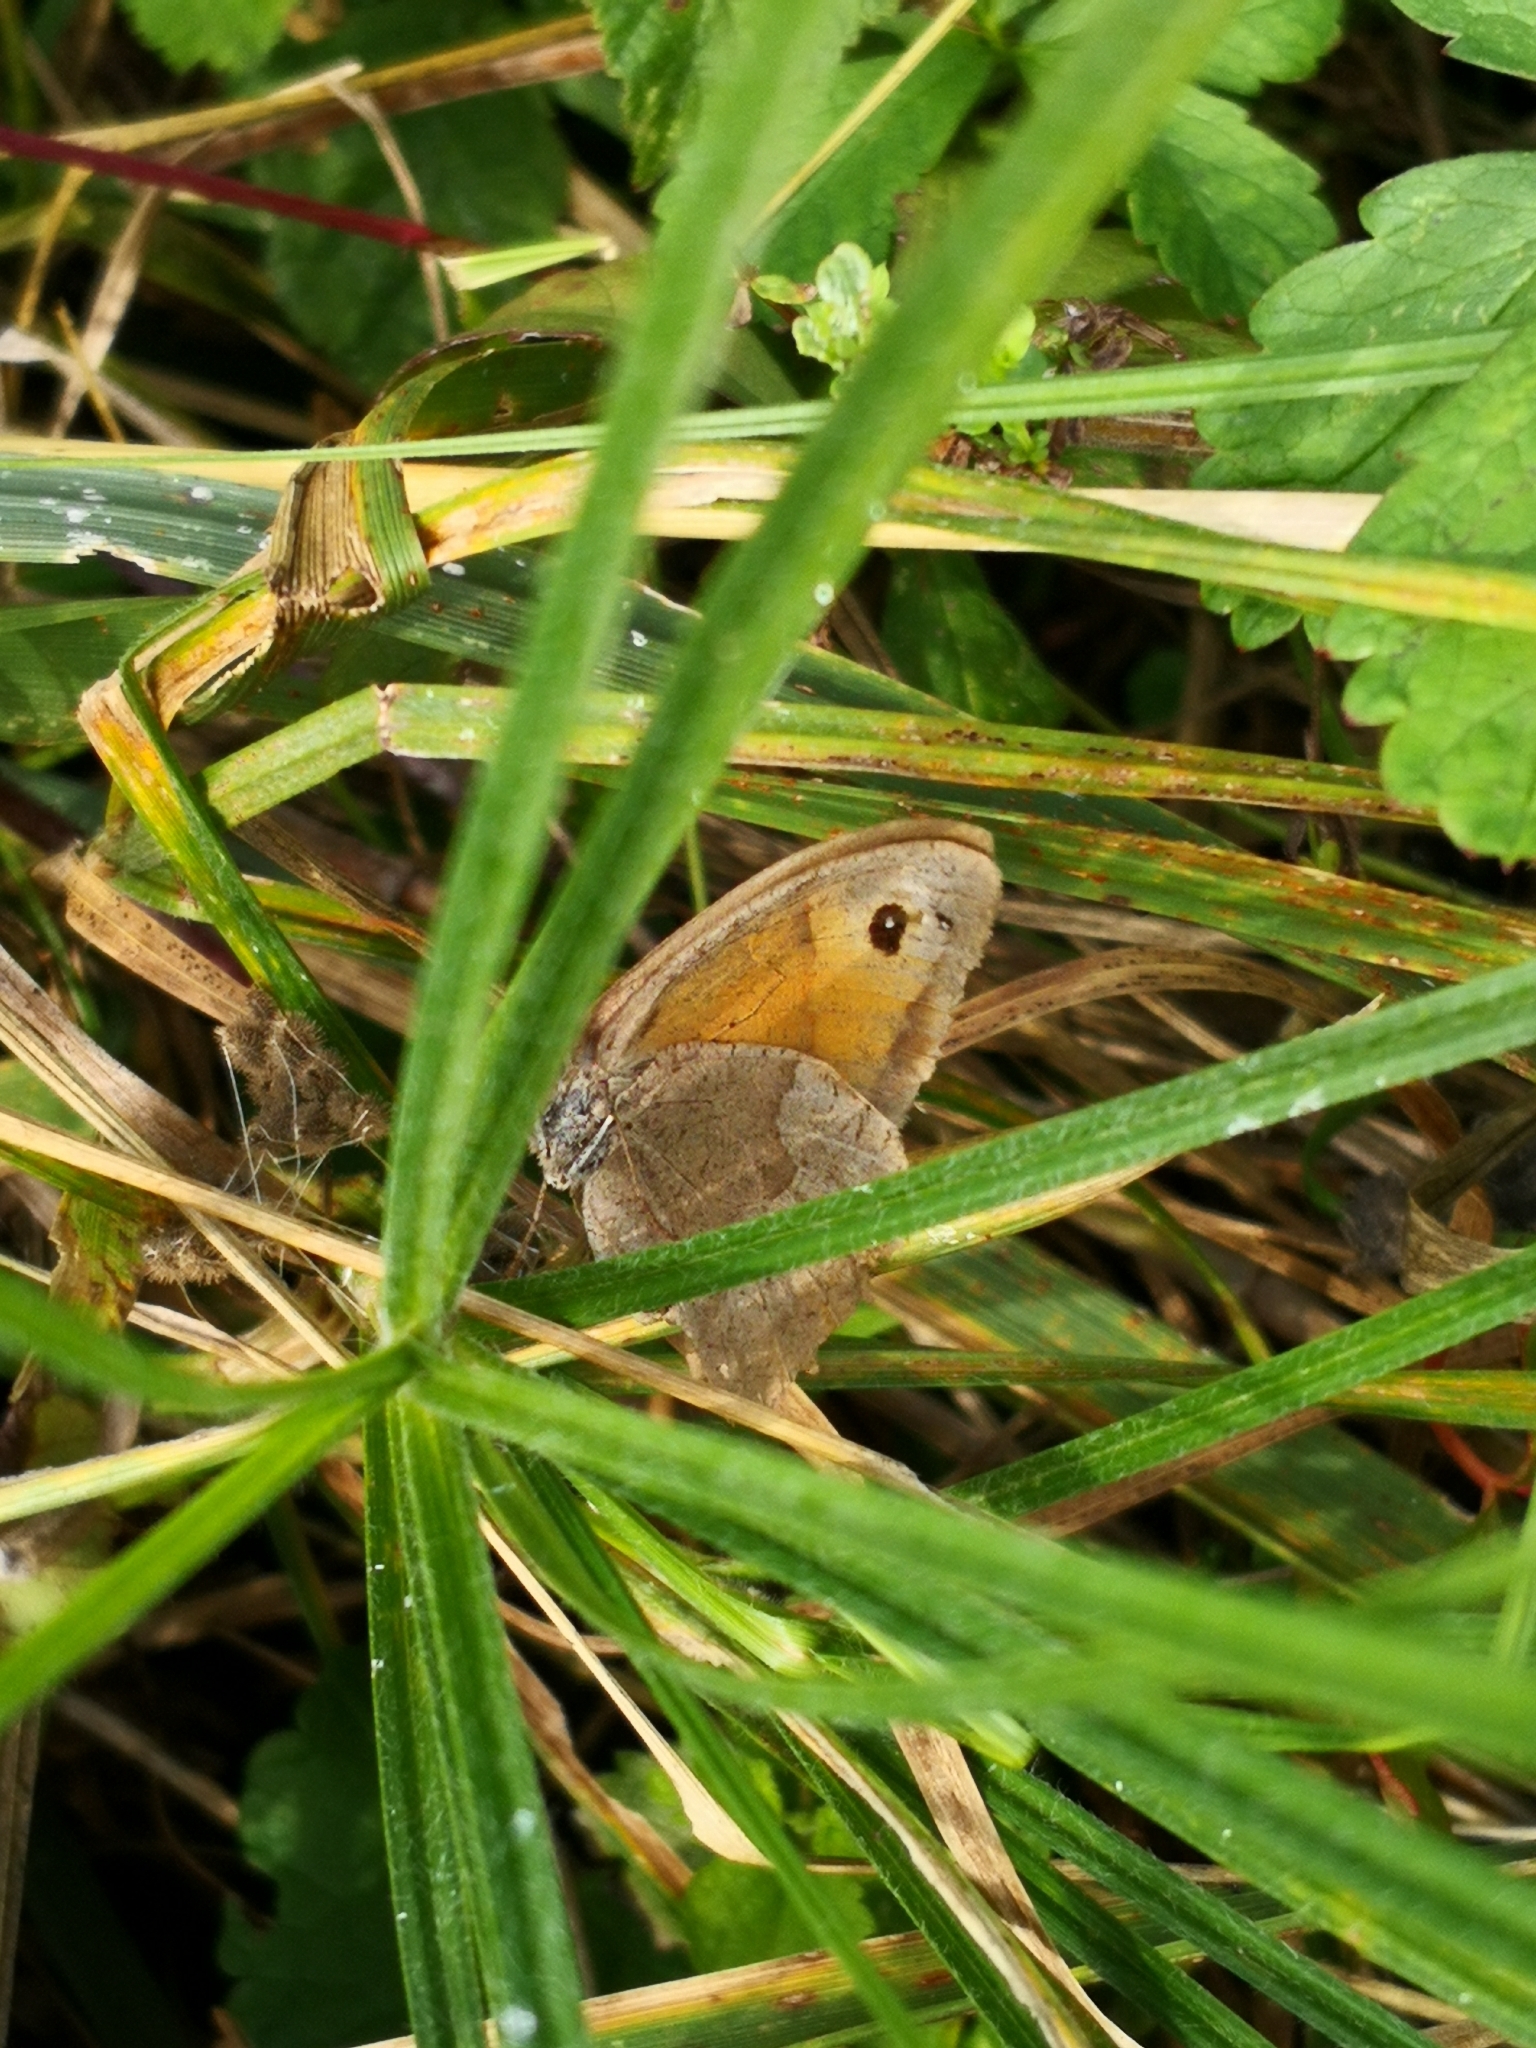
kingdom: Animalia
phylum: Arthropoda
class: Insecta
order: Lepidoptera
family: Nymphalidae
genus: Maniola
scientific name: Maniola jurtina
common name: Meadow brown
